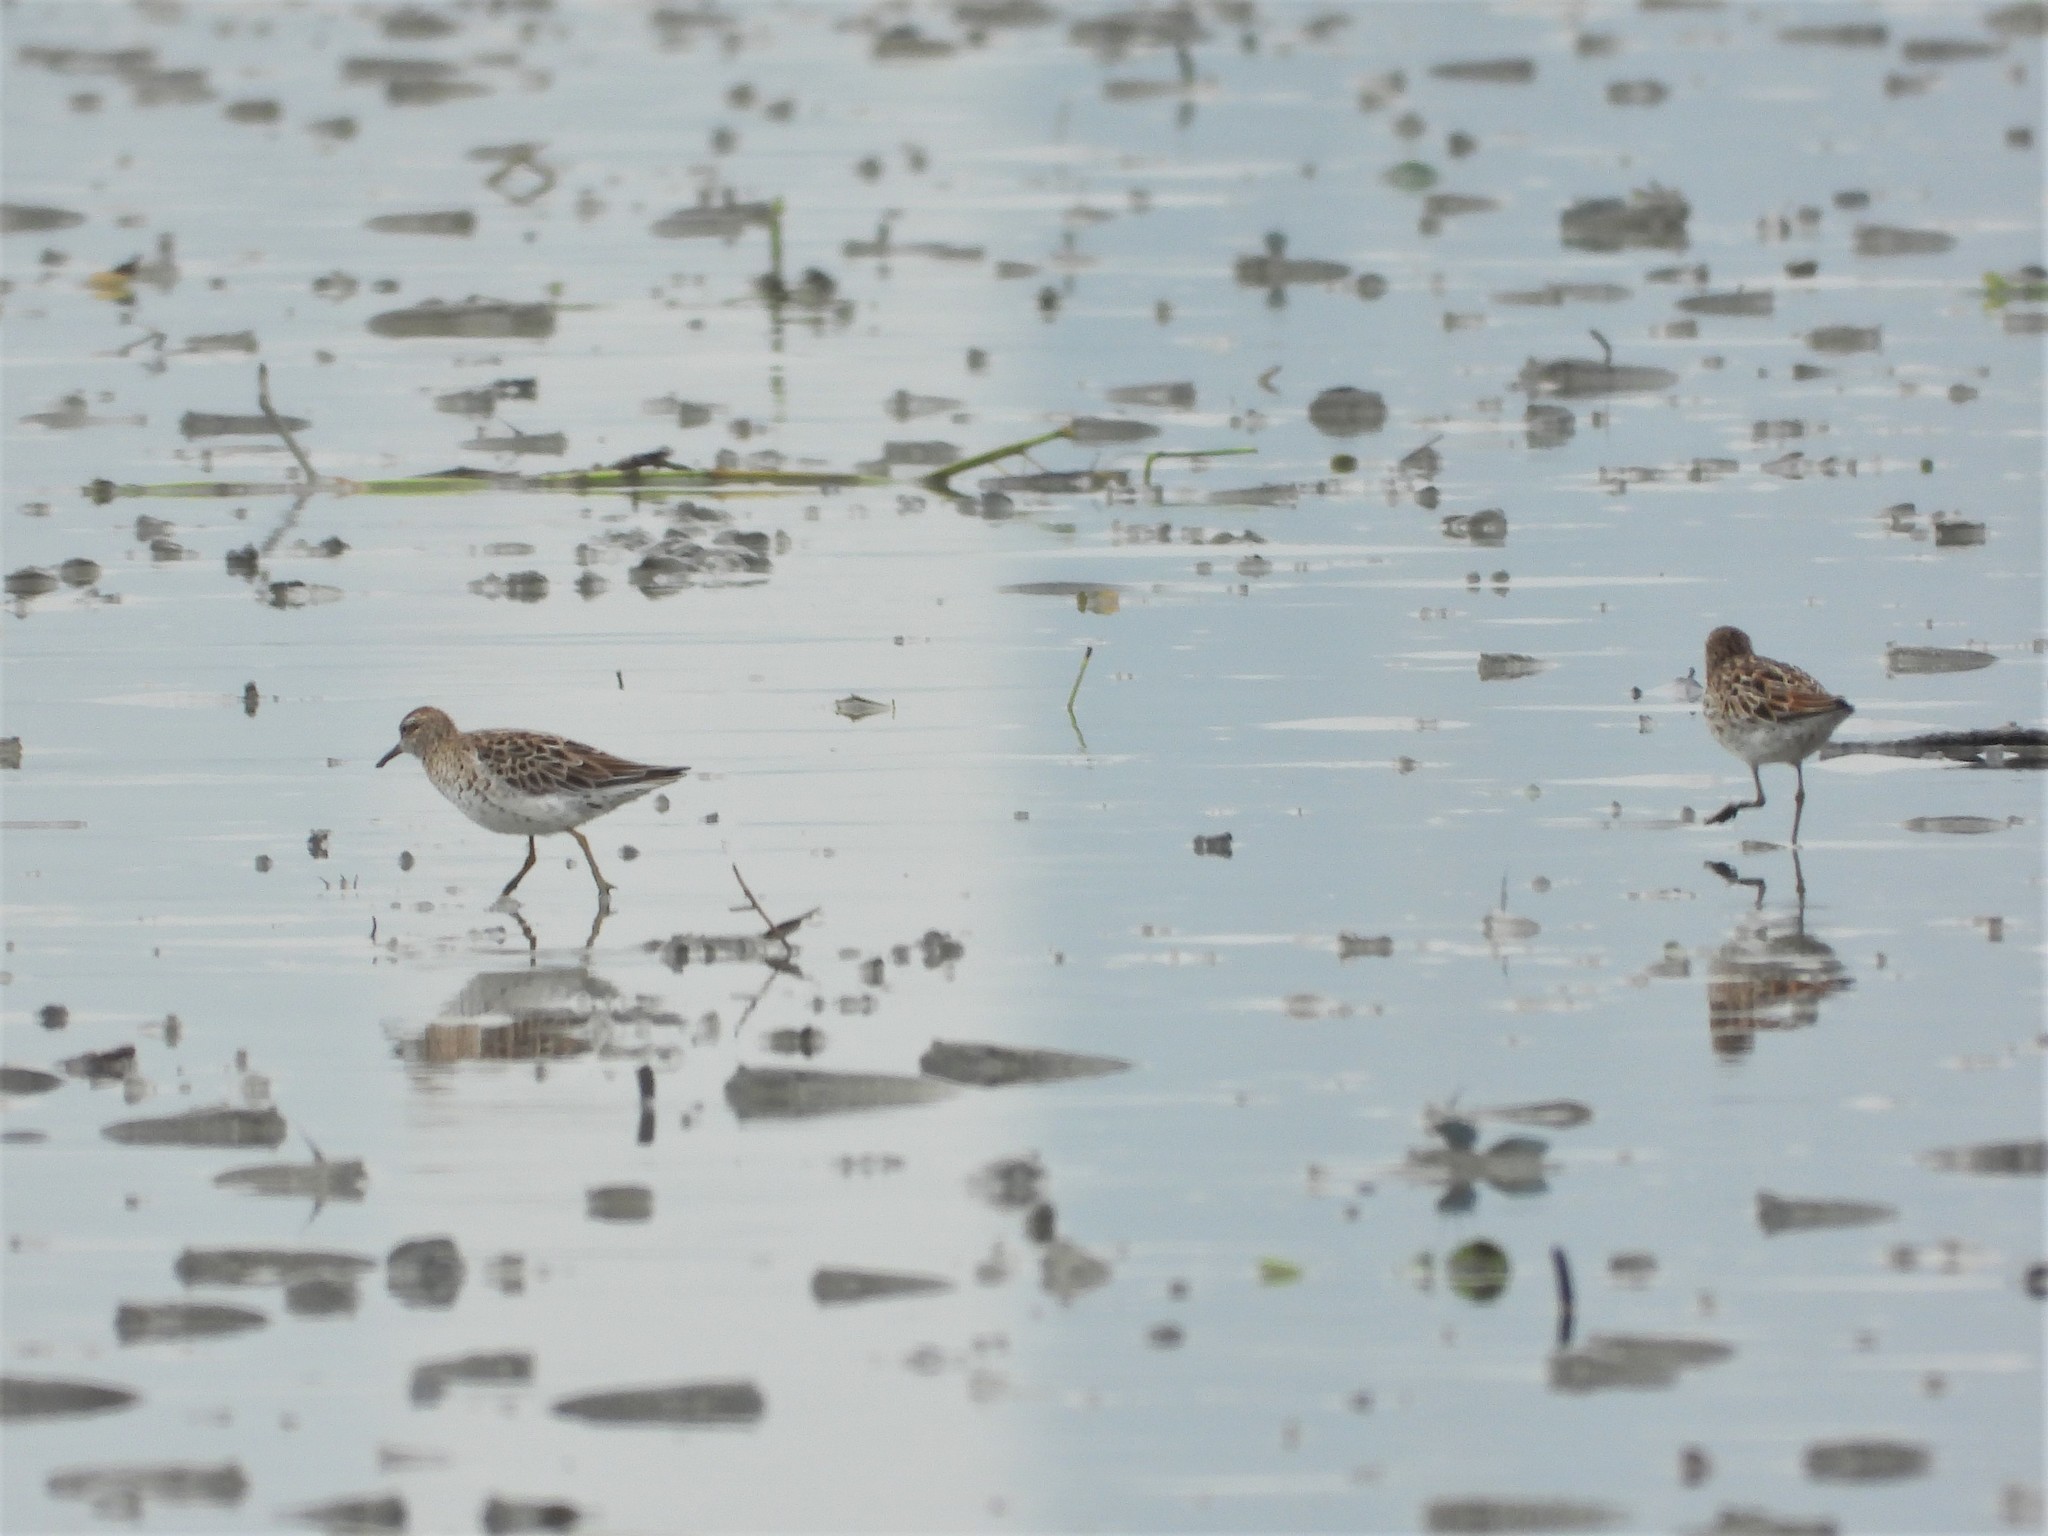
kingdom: Animalia
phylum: Chordata
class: Aves
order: Charadriiformes
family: Scolopacidae
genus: Calidris
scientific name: Calidris acuminata
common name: Sharp-tailed sandpiper
